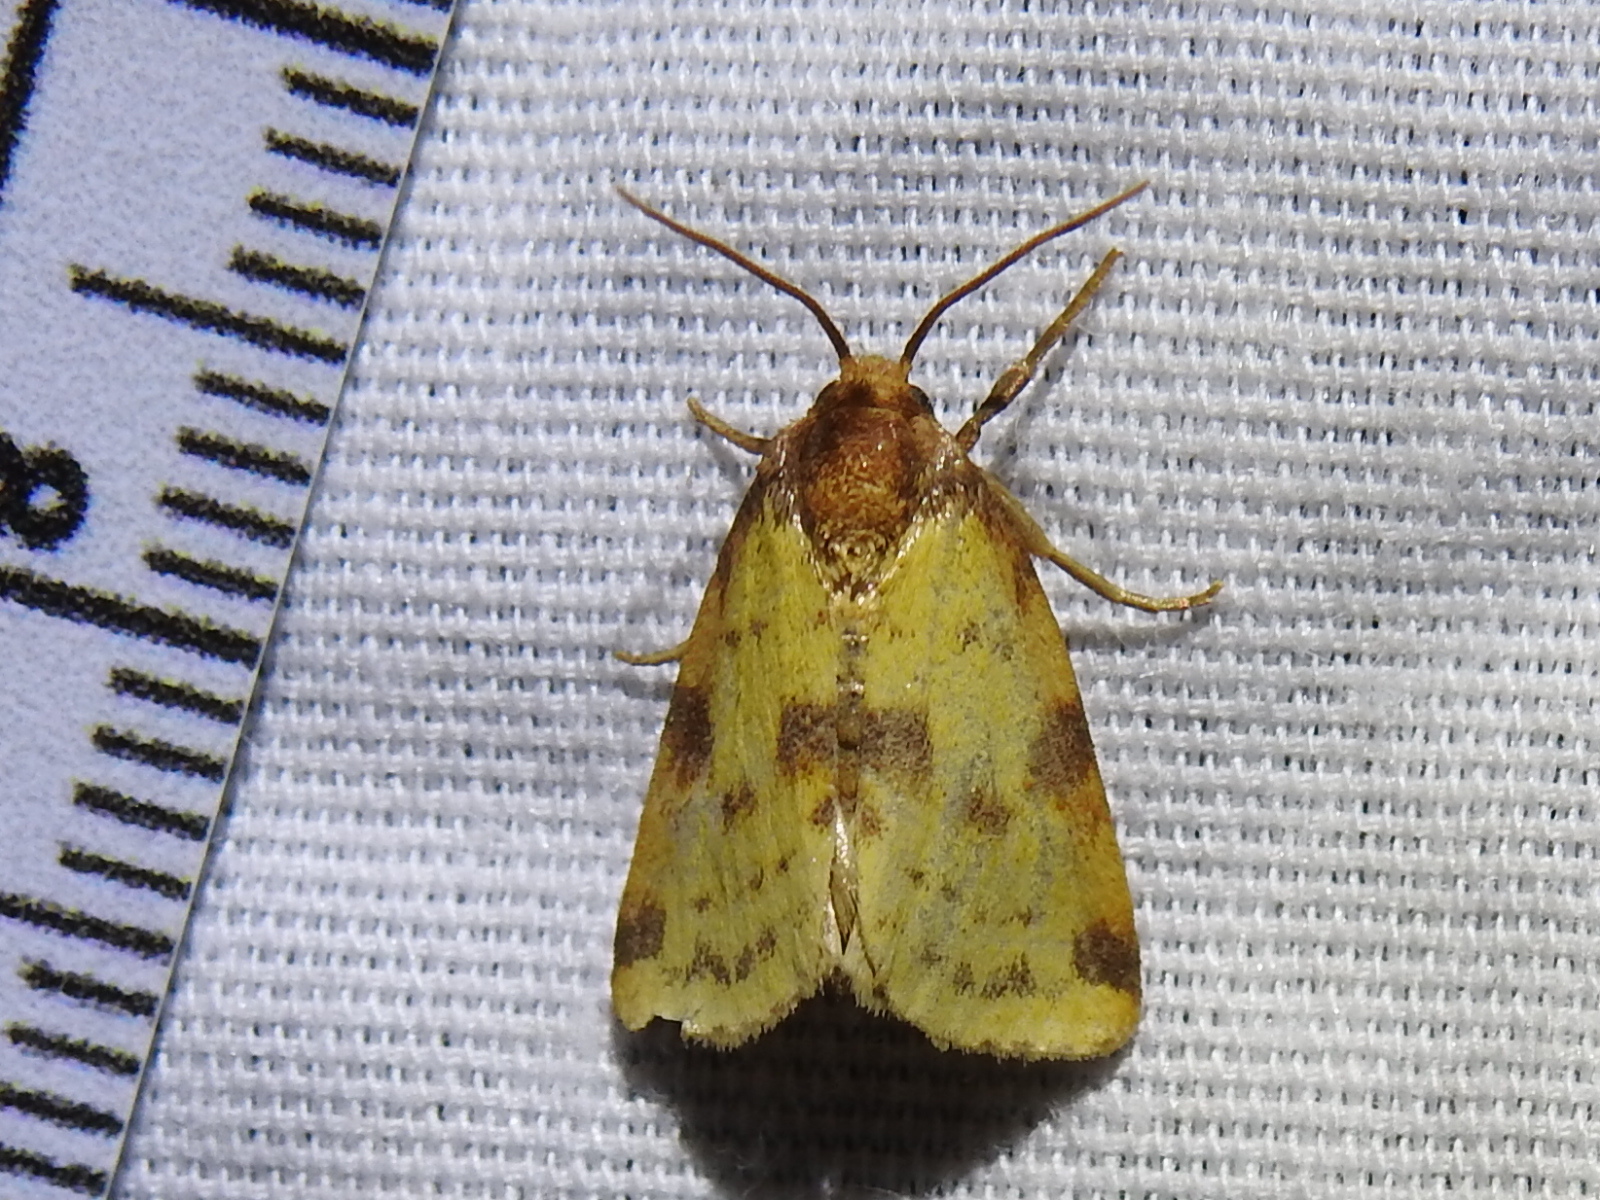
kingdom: Animalia
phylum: Arthropoda
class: Insecta
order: Lepidoptera
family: Noctuidae
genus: Azenia
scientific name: Azenia obtusa
